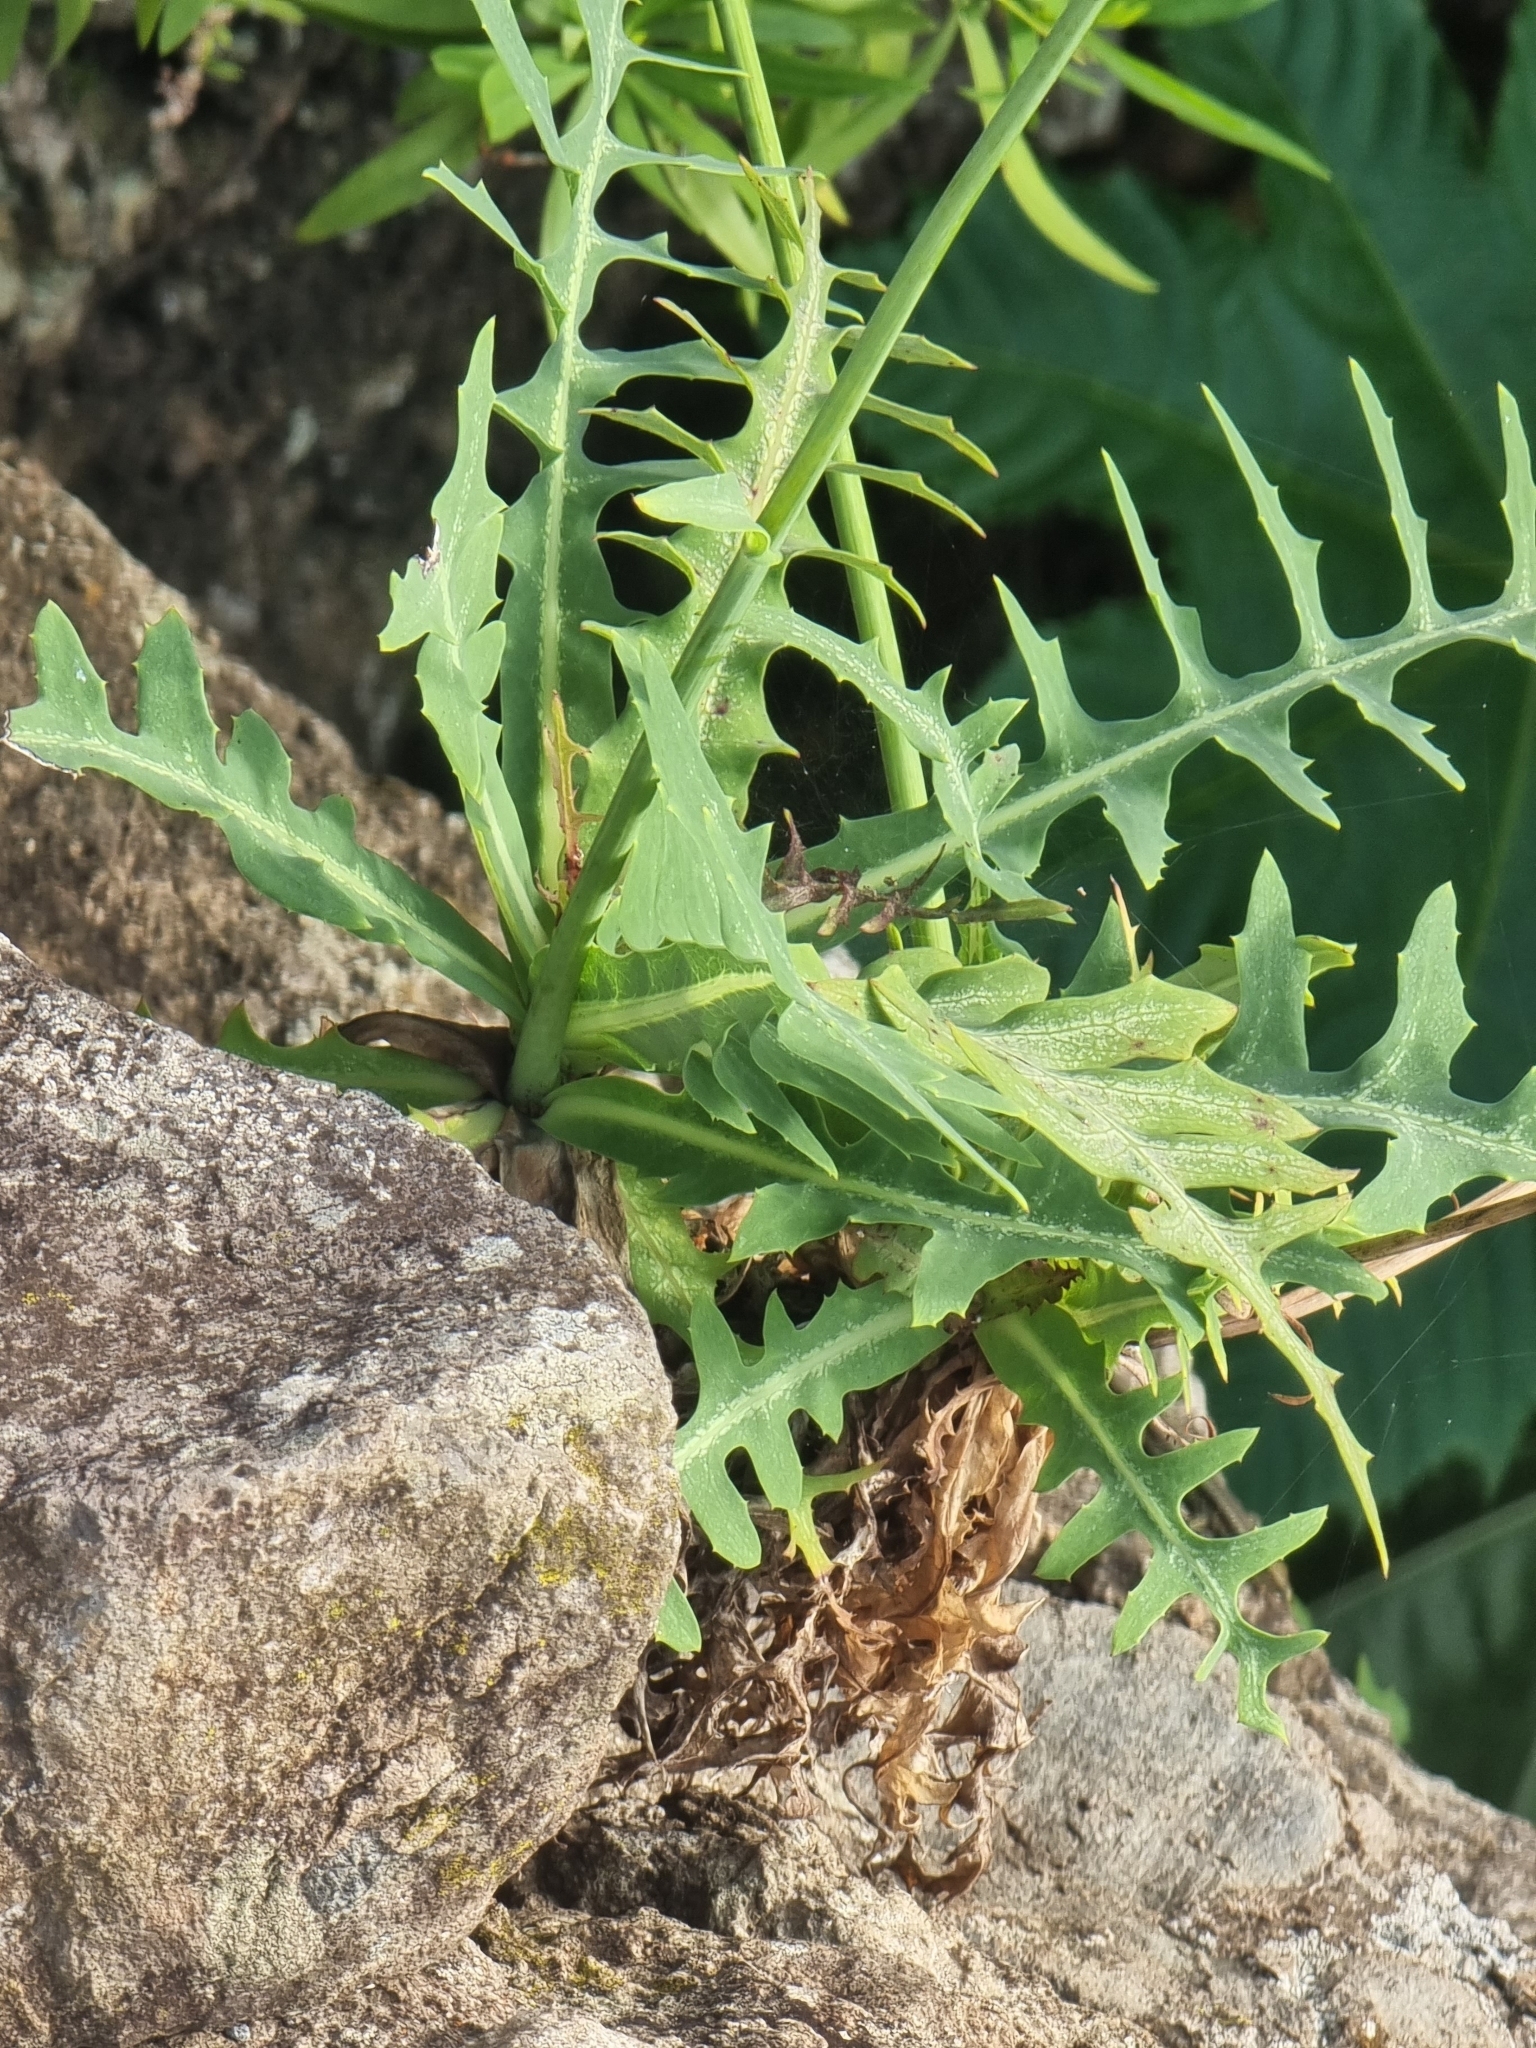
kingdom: Plantae
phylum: Tracheophyta
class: Magnoliopsida
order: Asterales
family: Asteraceae
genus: Sonchus
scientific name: Sonchus ustulatus
